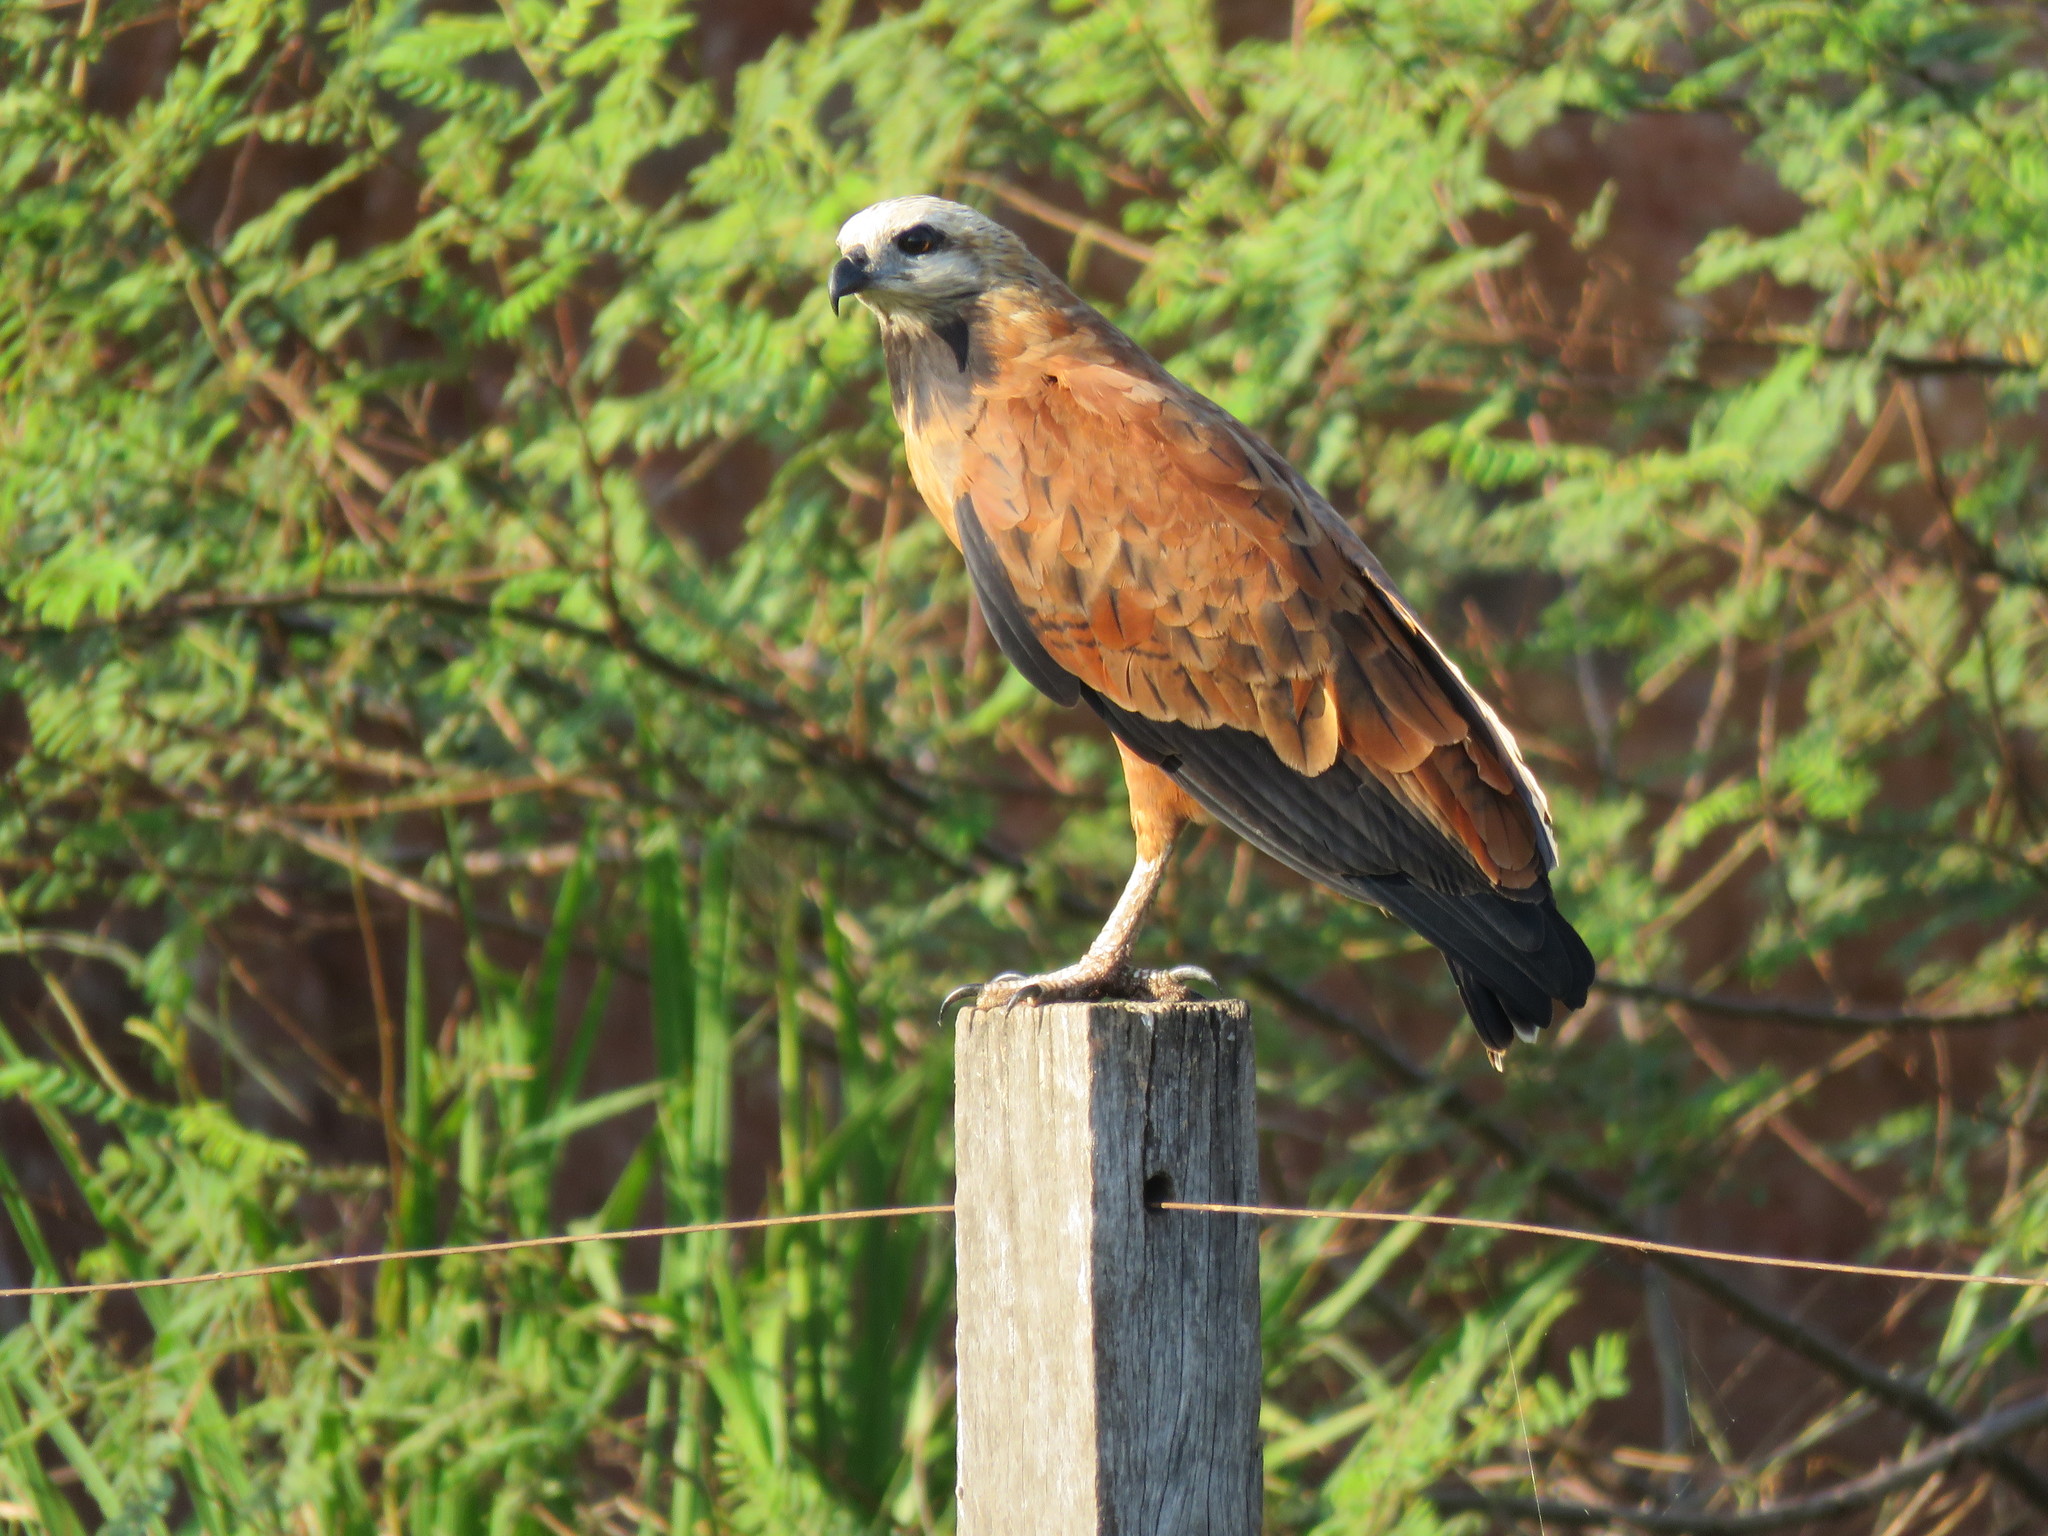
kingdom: Animalia
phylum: Chordata
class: Aves
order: Accipitriformes
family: Accipitridae
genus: Busarellus
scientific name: Busarellus nigricollis
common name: Black-collared hawk
